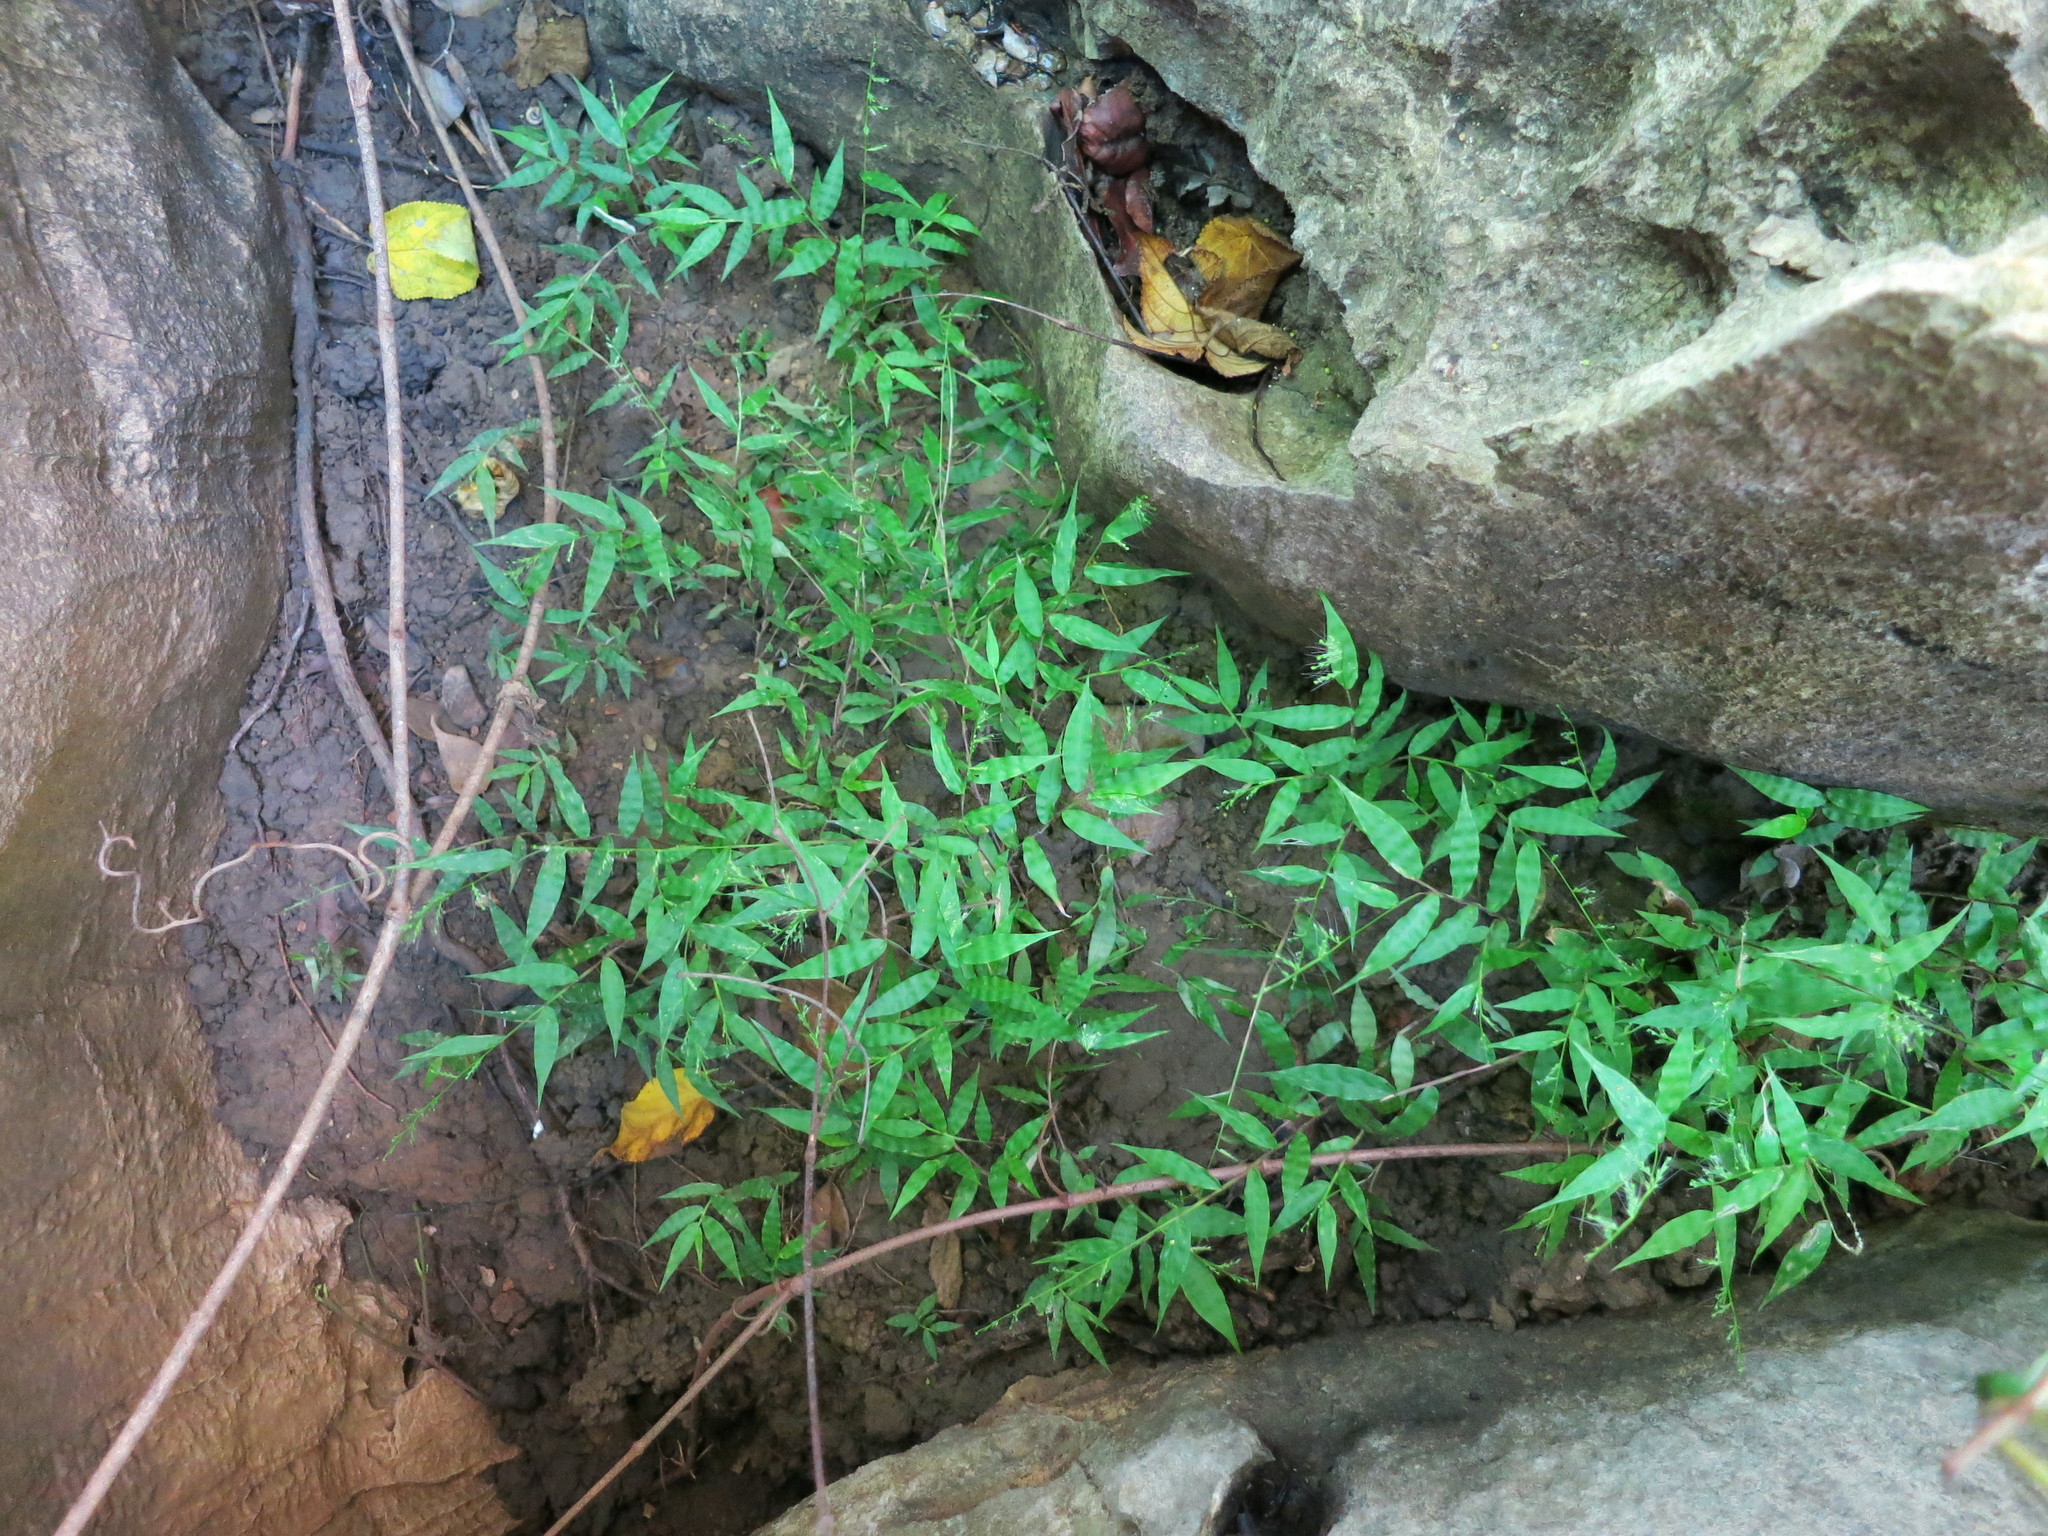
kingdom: Plantae
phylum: Tracheophyta
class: Liliopsida
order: Poales
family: Poaceae
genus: Cyphochlaena
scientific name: Cyphochlaena madagascariensis
